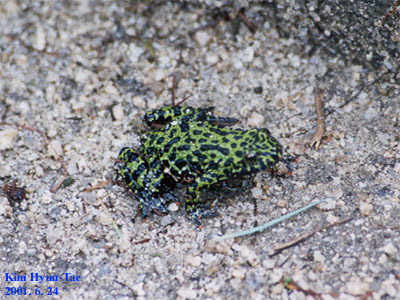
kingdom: Animalia
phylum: Chordata
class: Amphibia
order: Anura
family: Bombinatoridae
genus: Bombina
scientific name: Bombina orientalis
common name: Oriental firebelly toad
